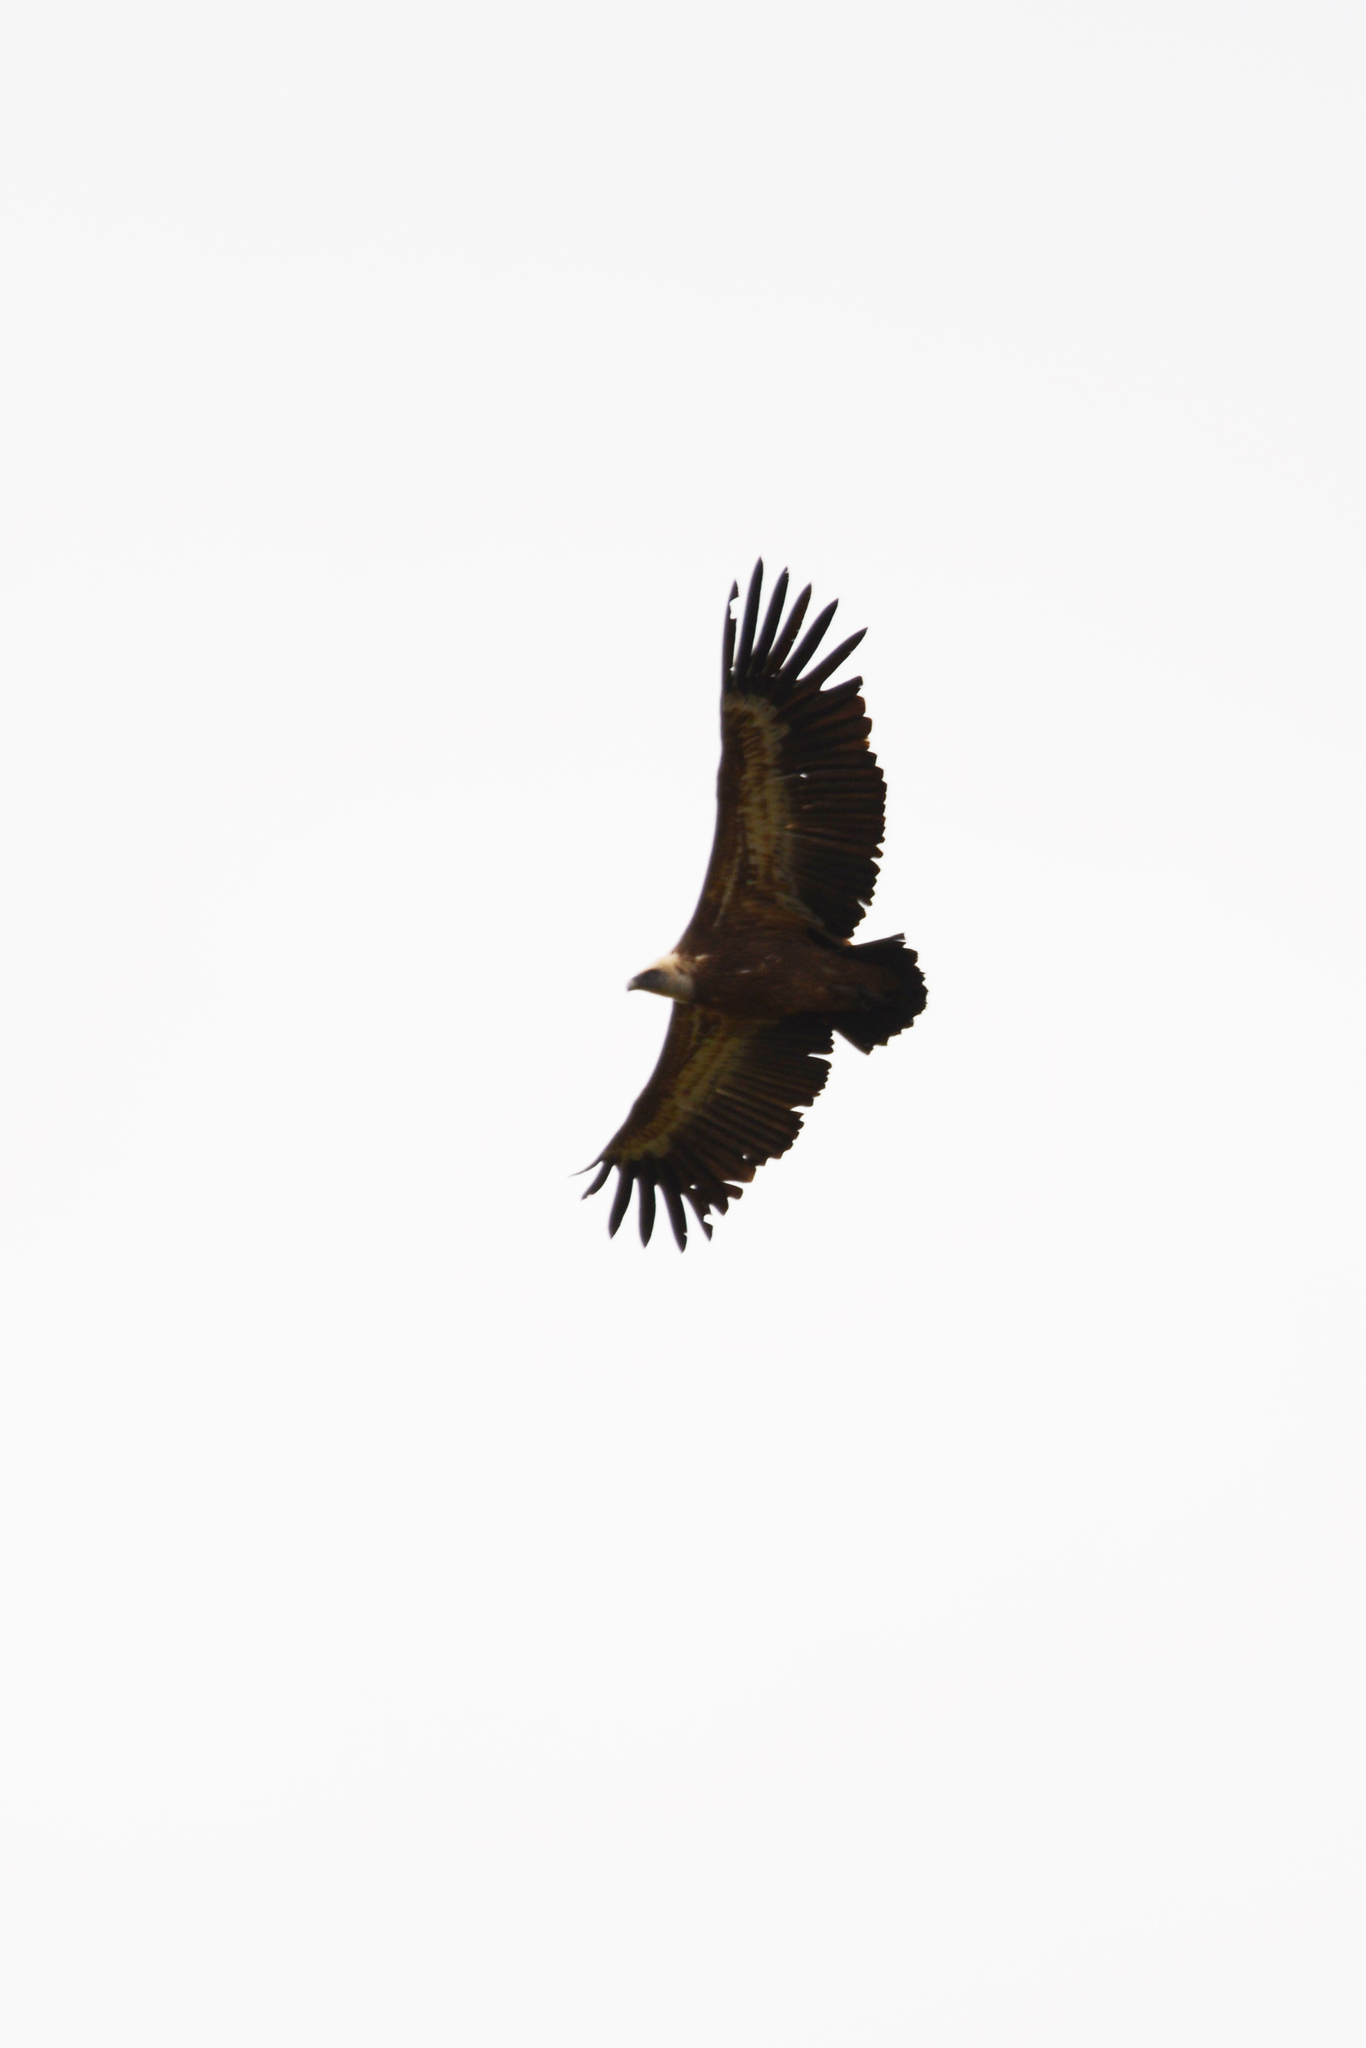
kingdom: Animalia
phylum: Chordata
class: Aves
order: Accipitriformes
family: Accipitridae
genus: Gyps
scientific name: Gyps fulvus
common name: Griffon vulture
